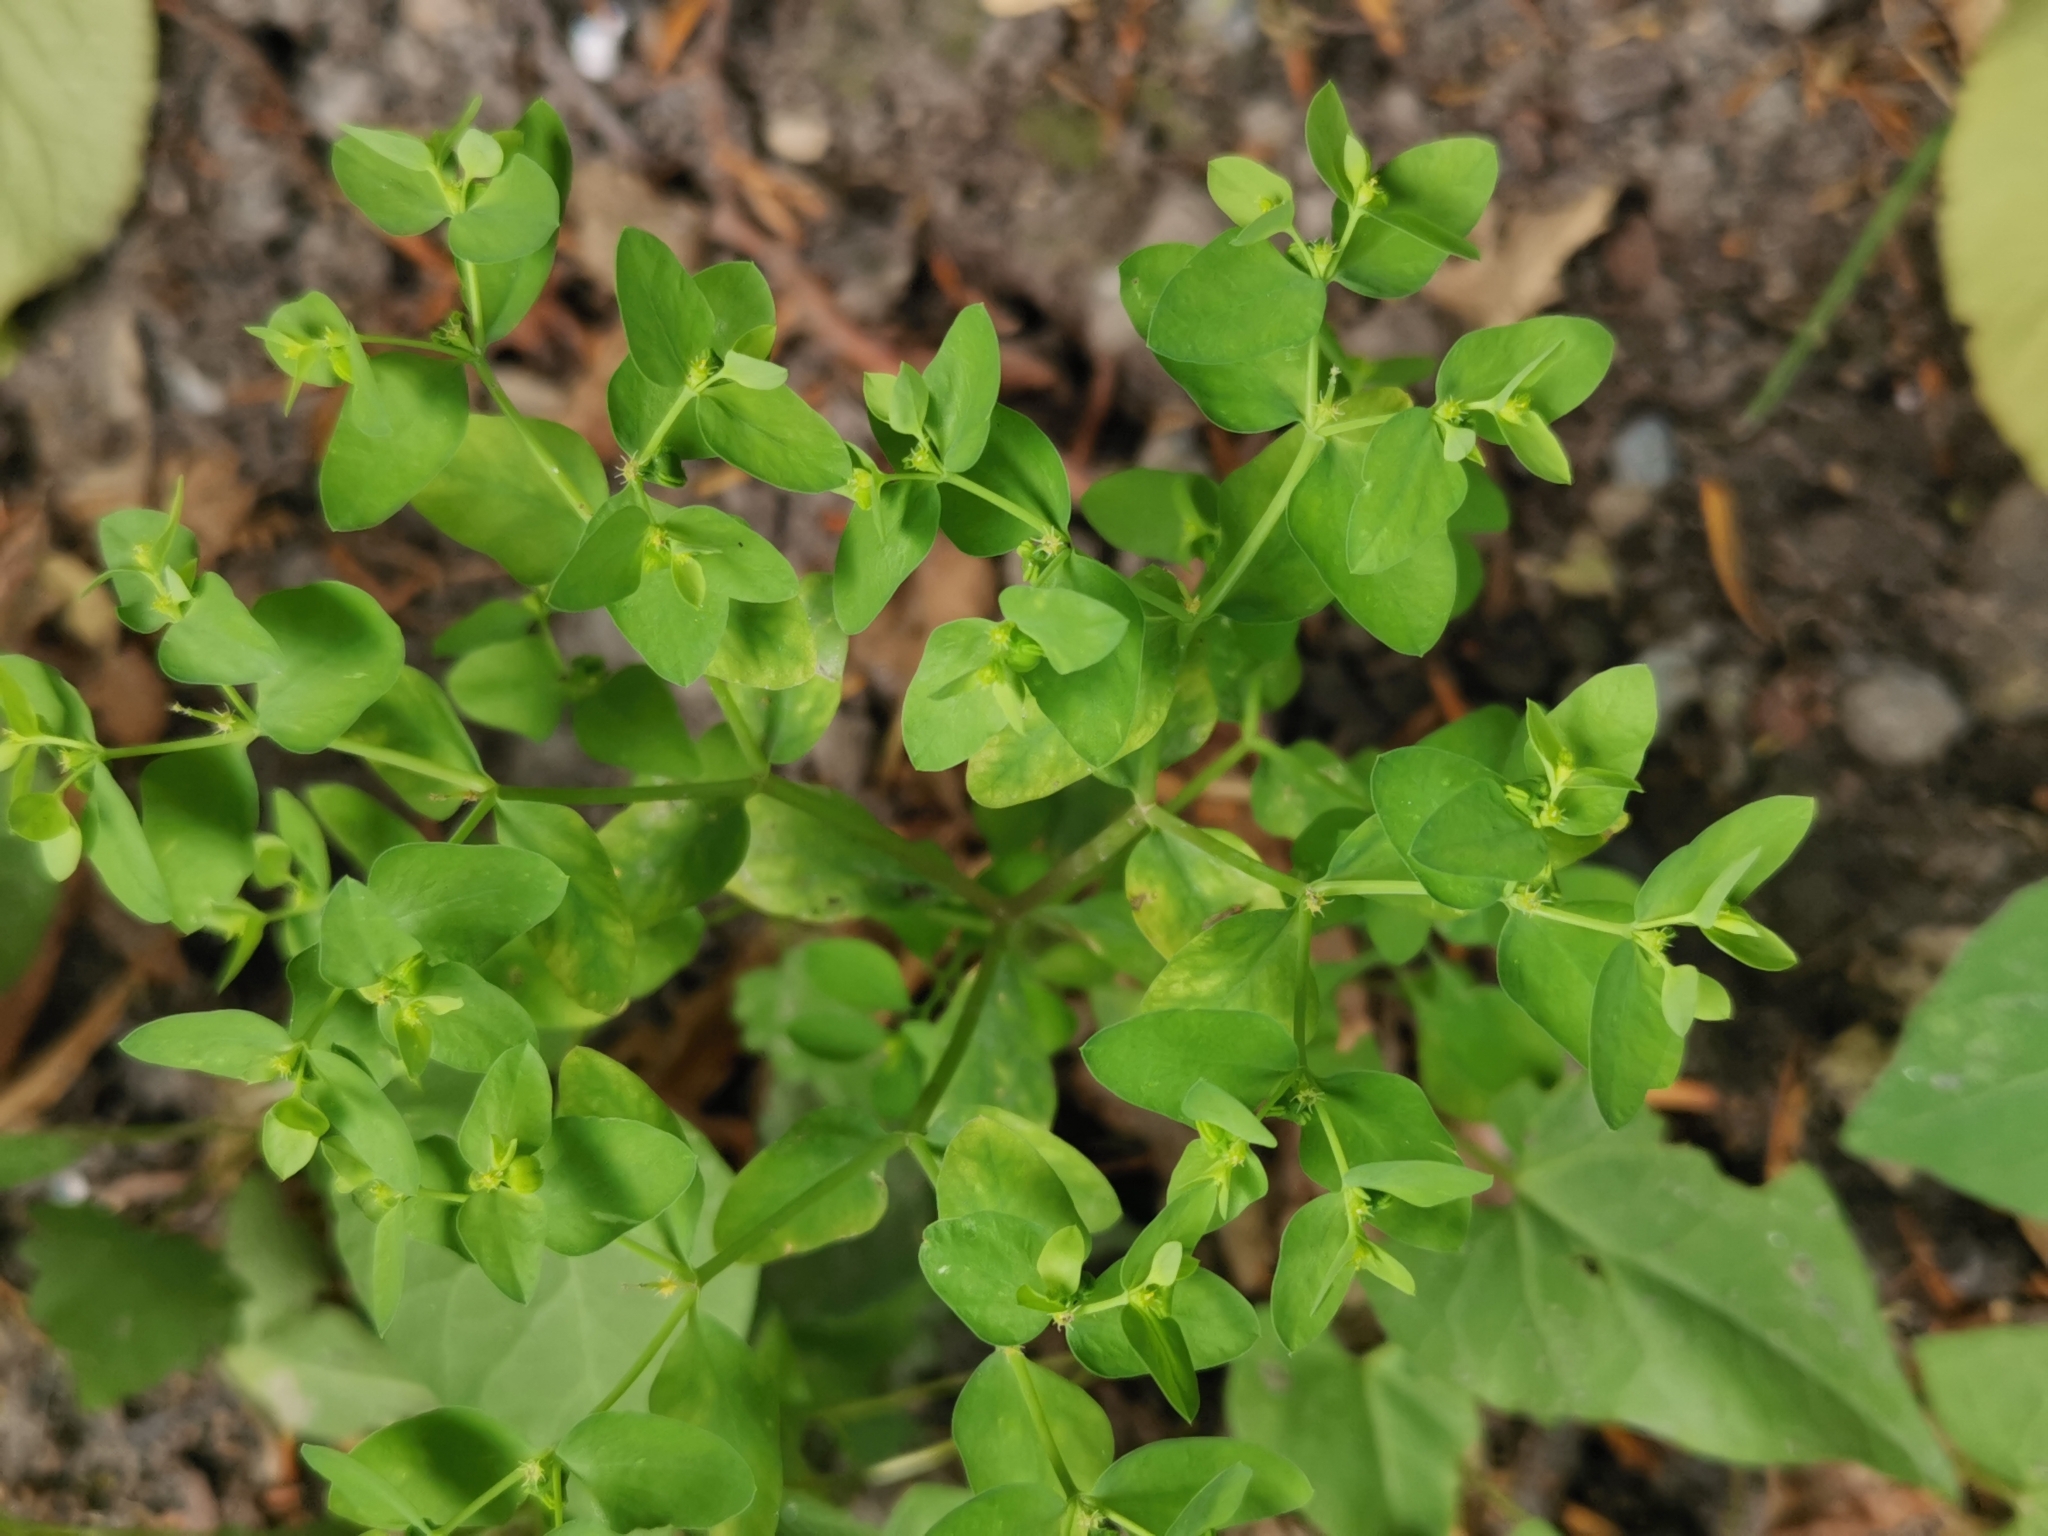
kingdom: Plantae
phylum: Tracheophyta
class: Magnoliopsida
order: Malpighiales
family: Euphorbiaceae
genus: Euphorbia
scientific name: Euphorbia peplus
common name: Petty spurge
